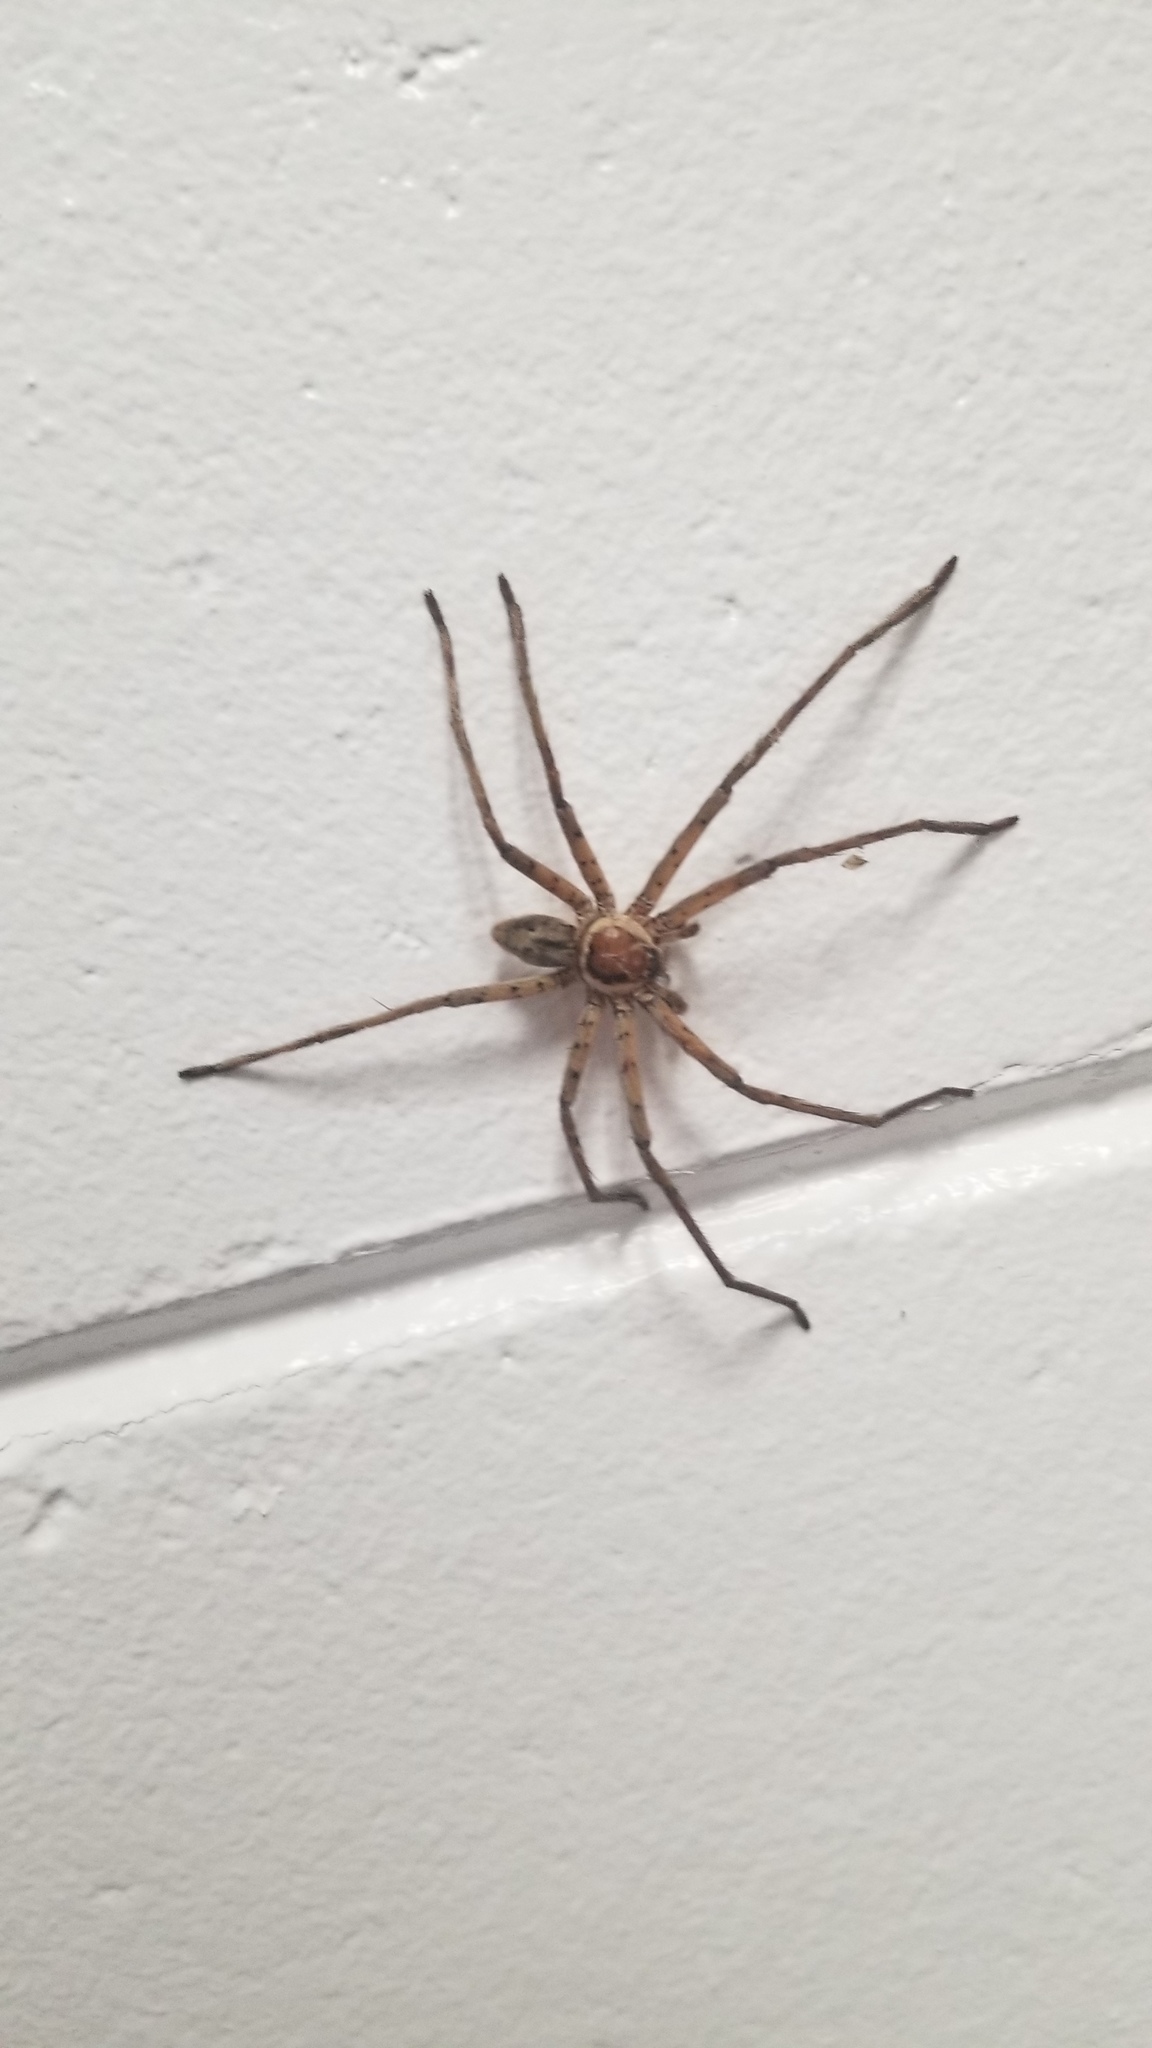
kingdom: Animalia
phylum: Arthropoda
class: Arachnida
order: Araneae
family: Sparassidae
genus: Heteropoda
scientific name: Heteropoda venatoria
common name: Huntsman spider
